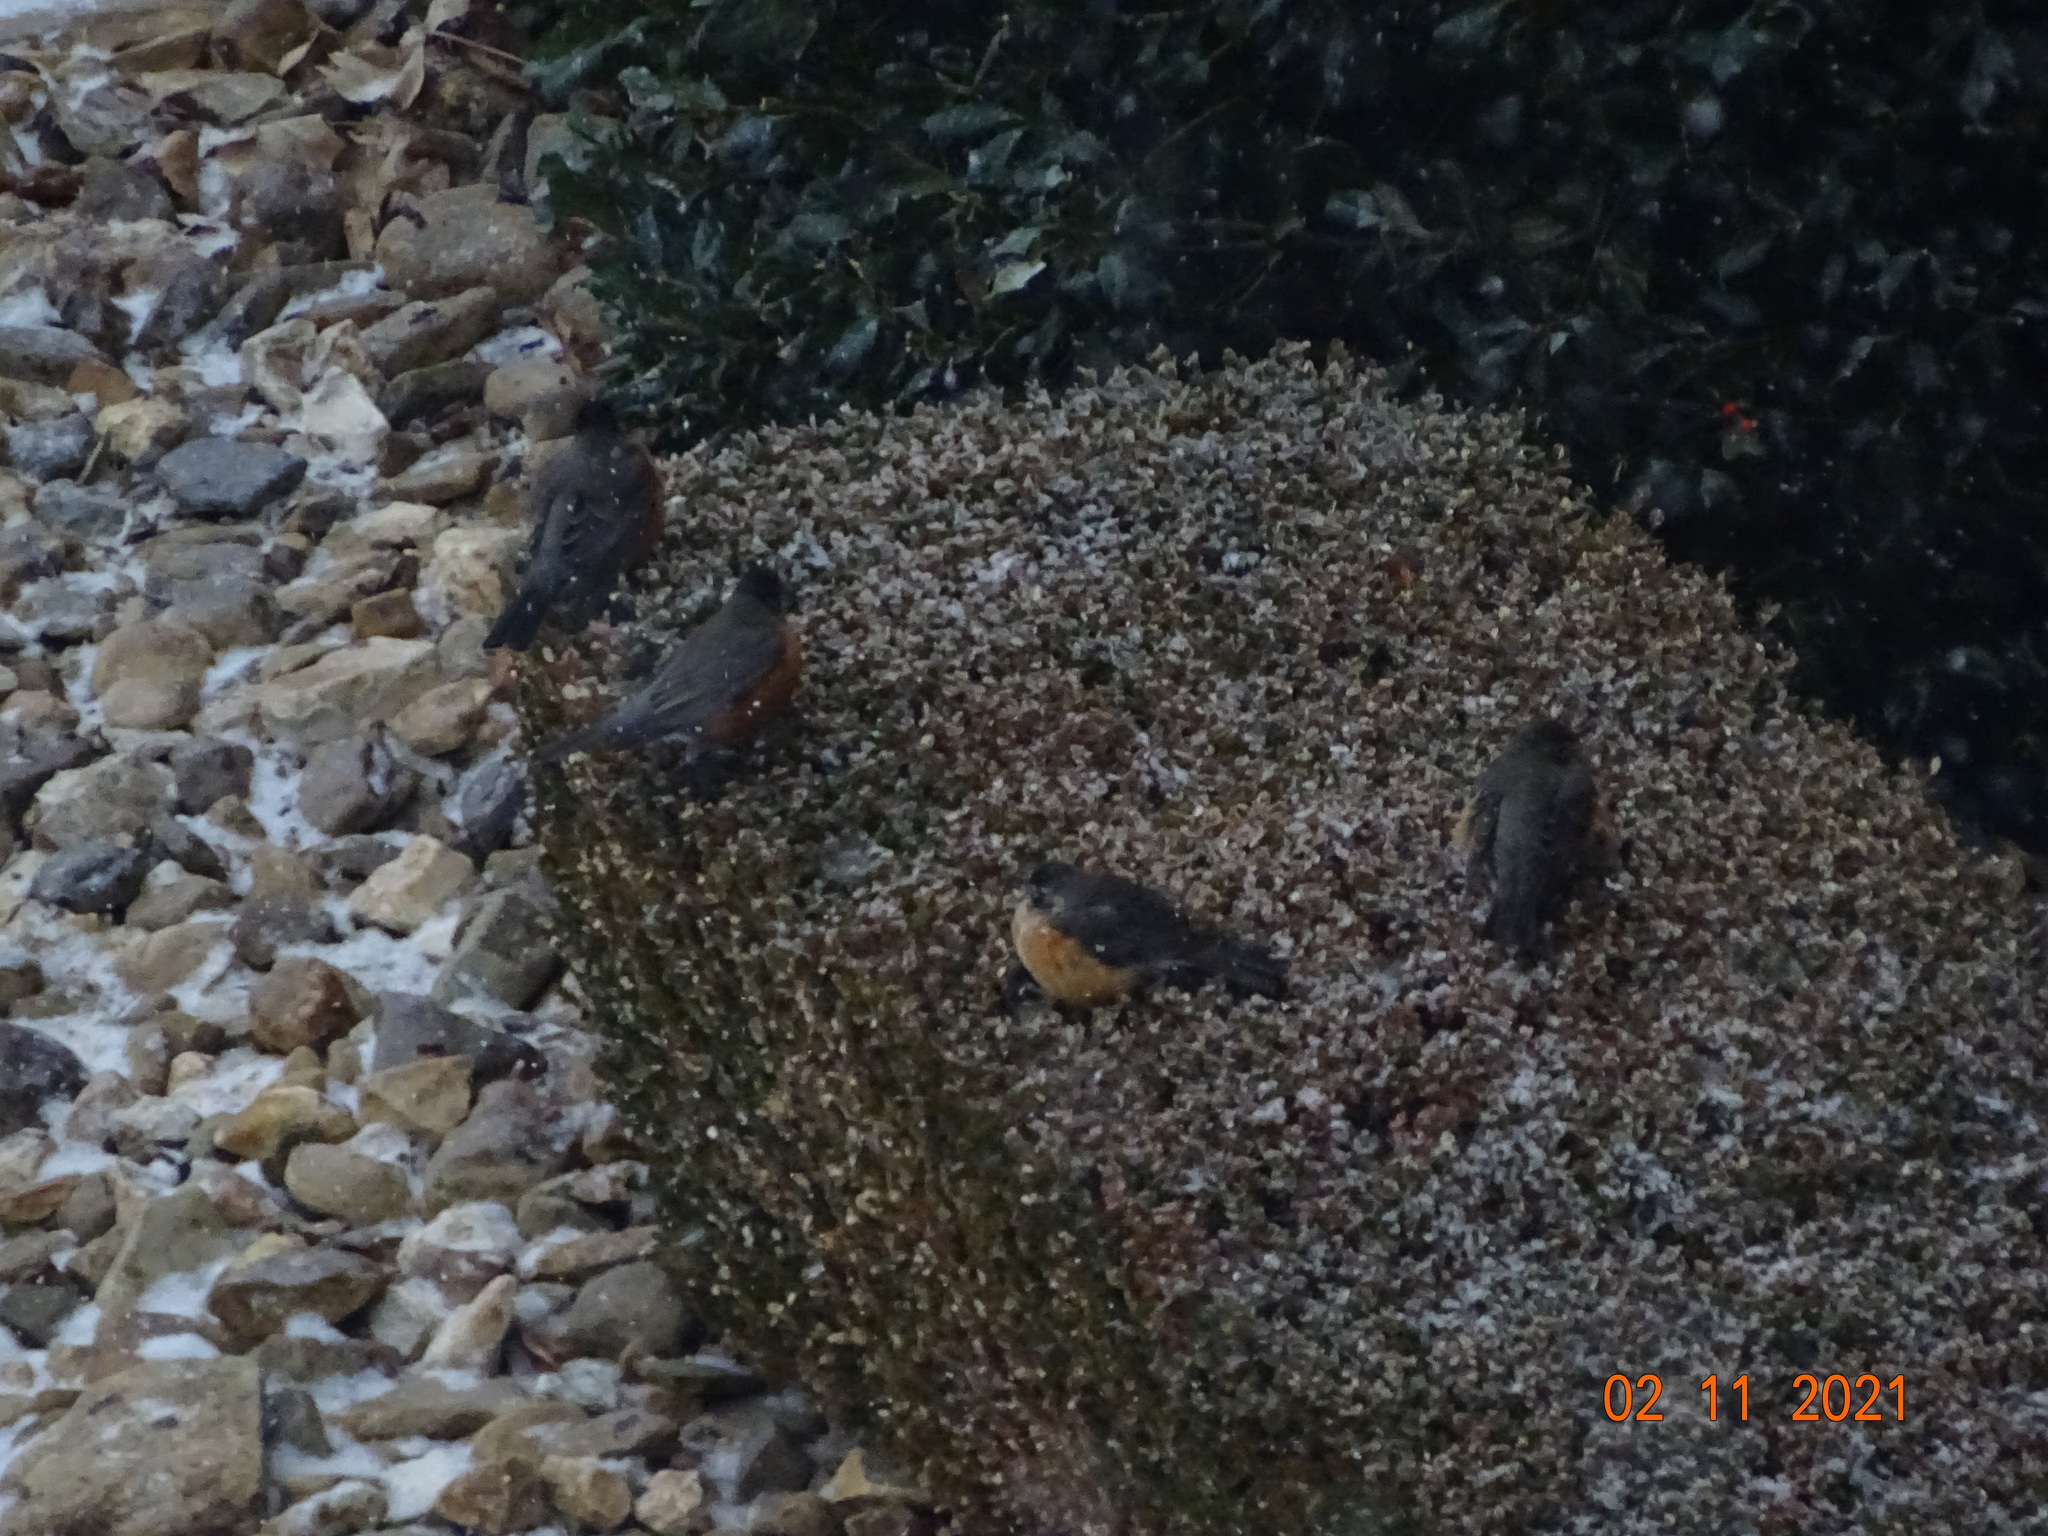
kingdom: Animalia
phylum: Chordata
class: Aves
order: Passeriformes
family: Turdidae
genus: Turdus
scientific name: Turdus migratorius
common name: American robin
